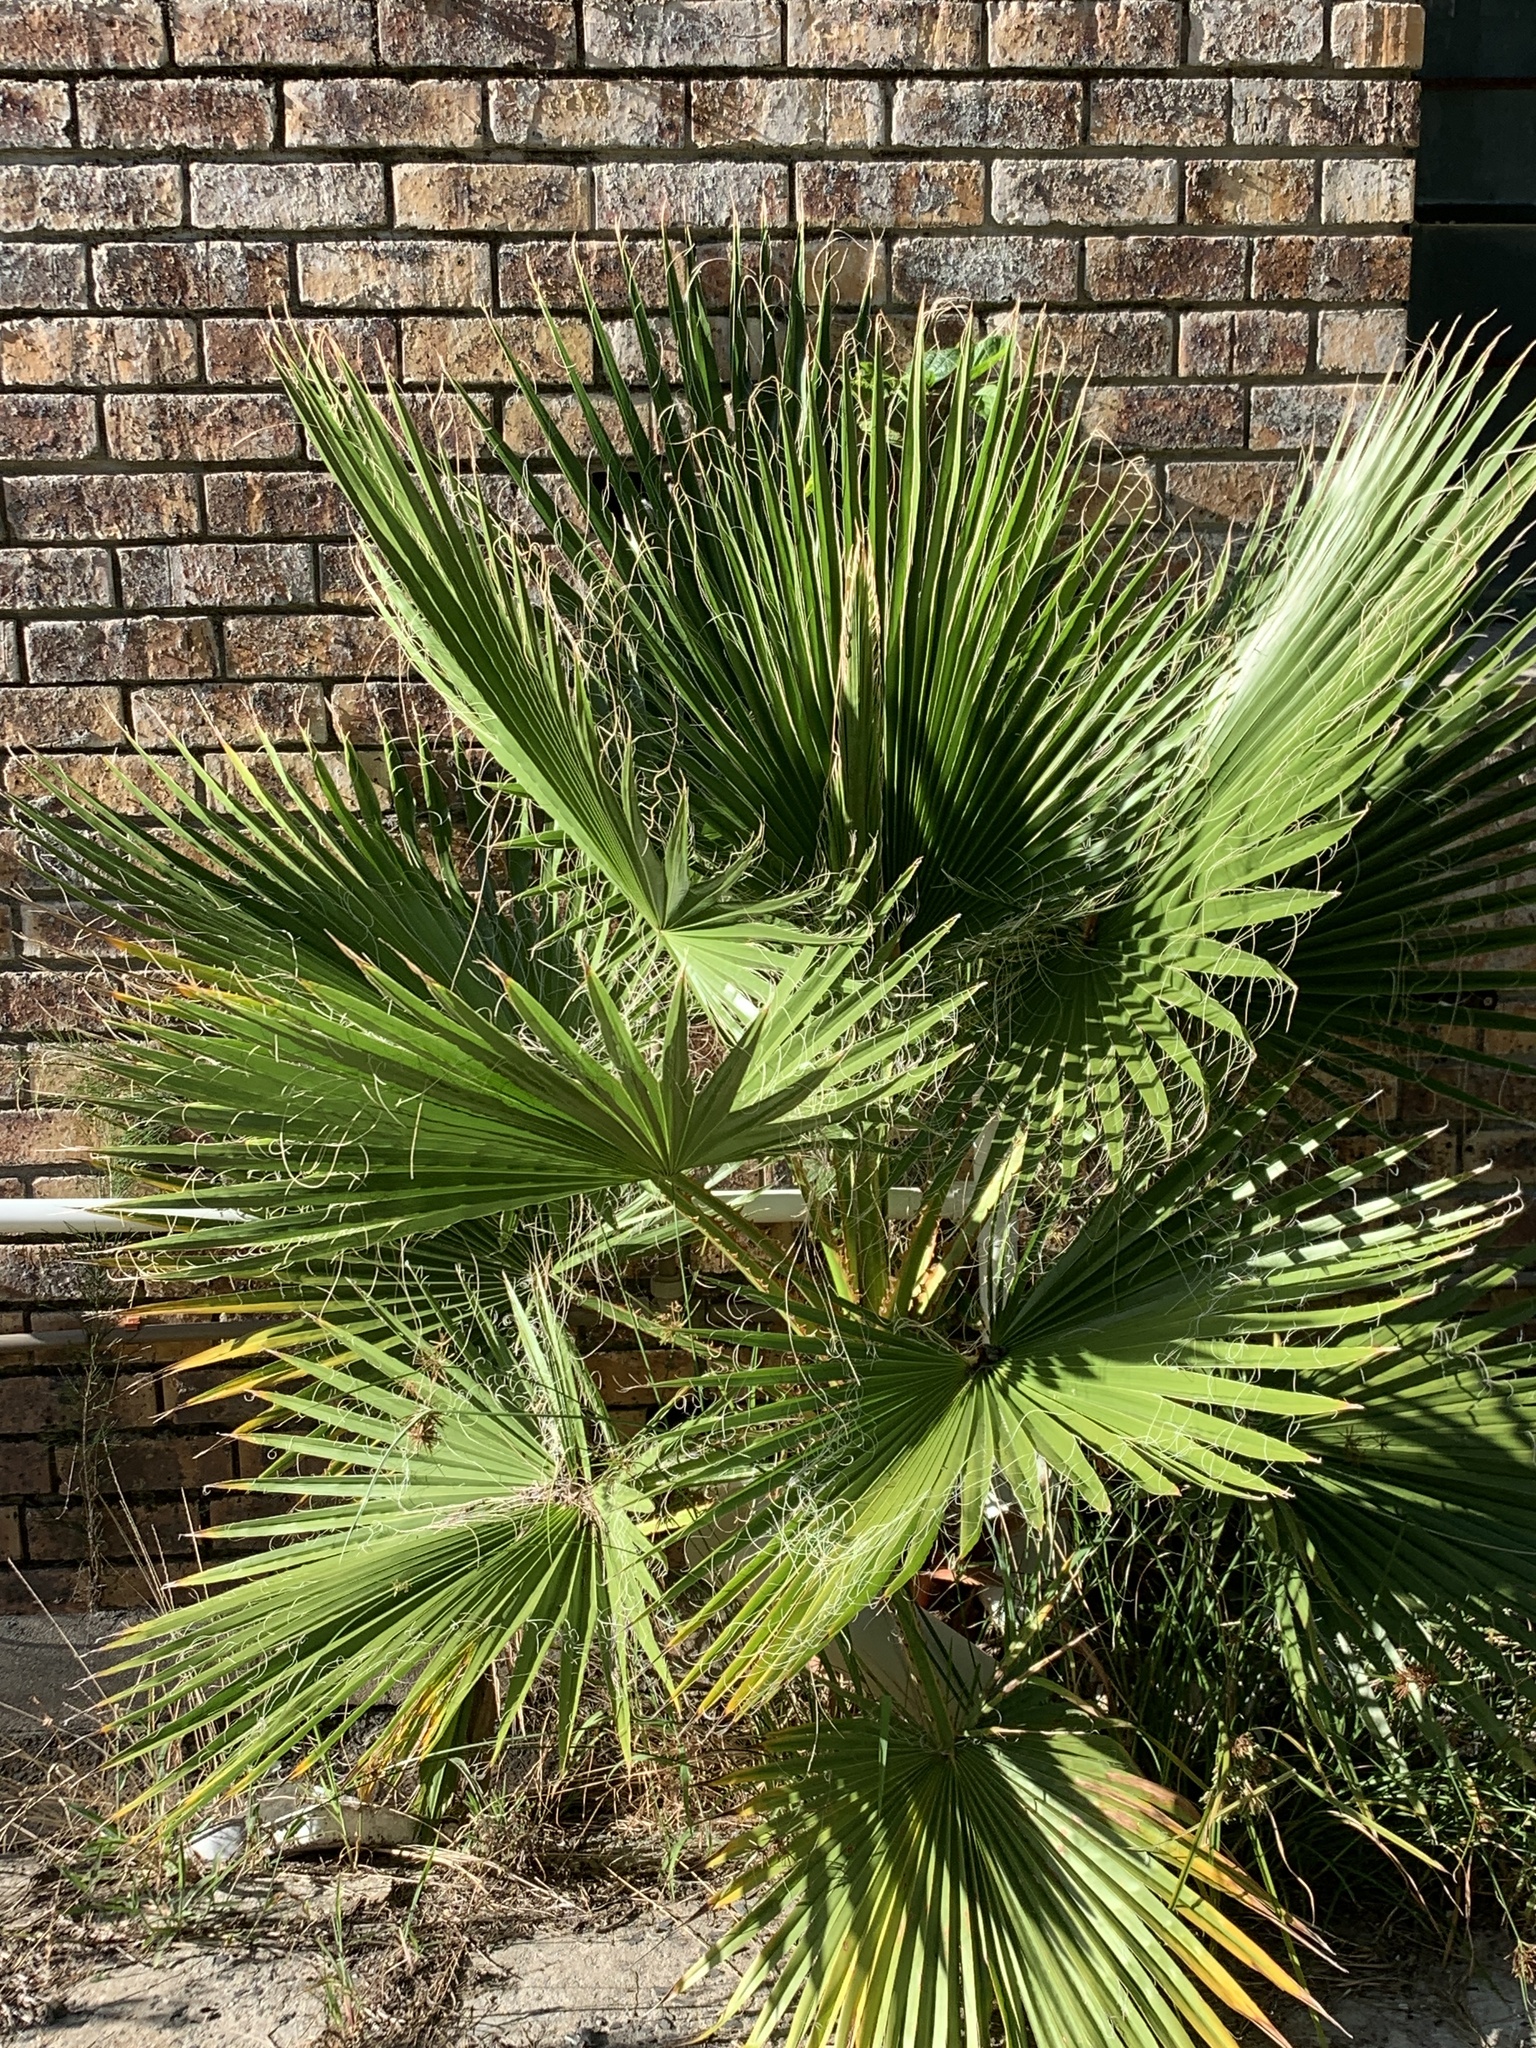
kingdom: Plantae
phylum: Tracheophyta
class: Liliopsida
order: Arecales
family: Arecaceae
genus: Washingtonia
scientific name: Washingtonia robusta
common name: Mexican fan palm
